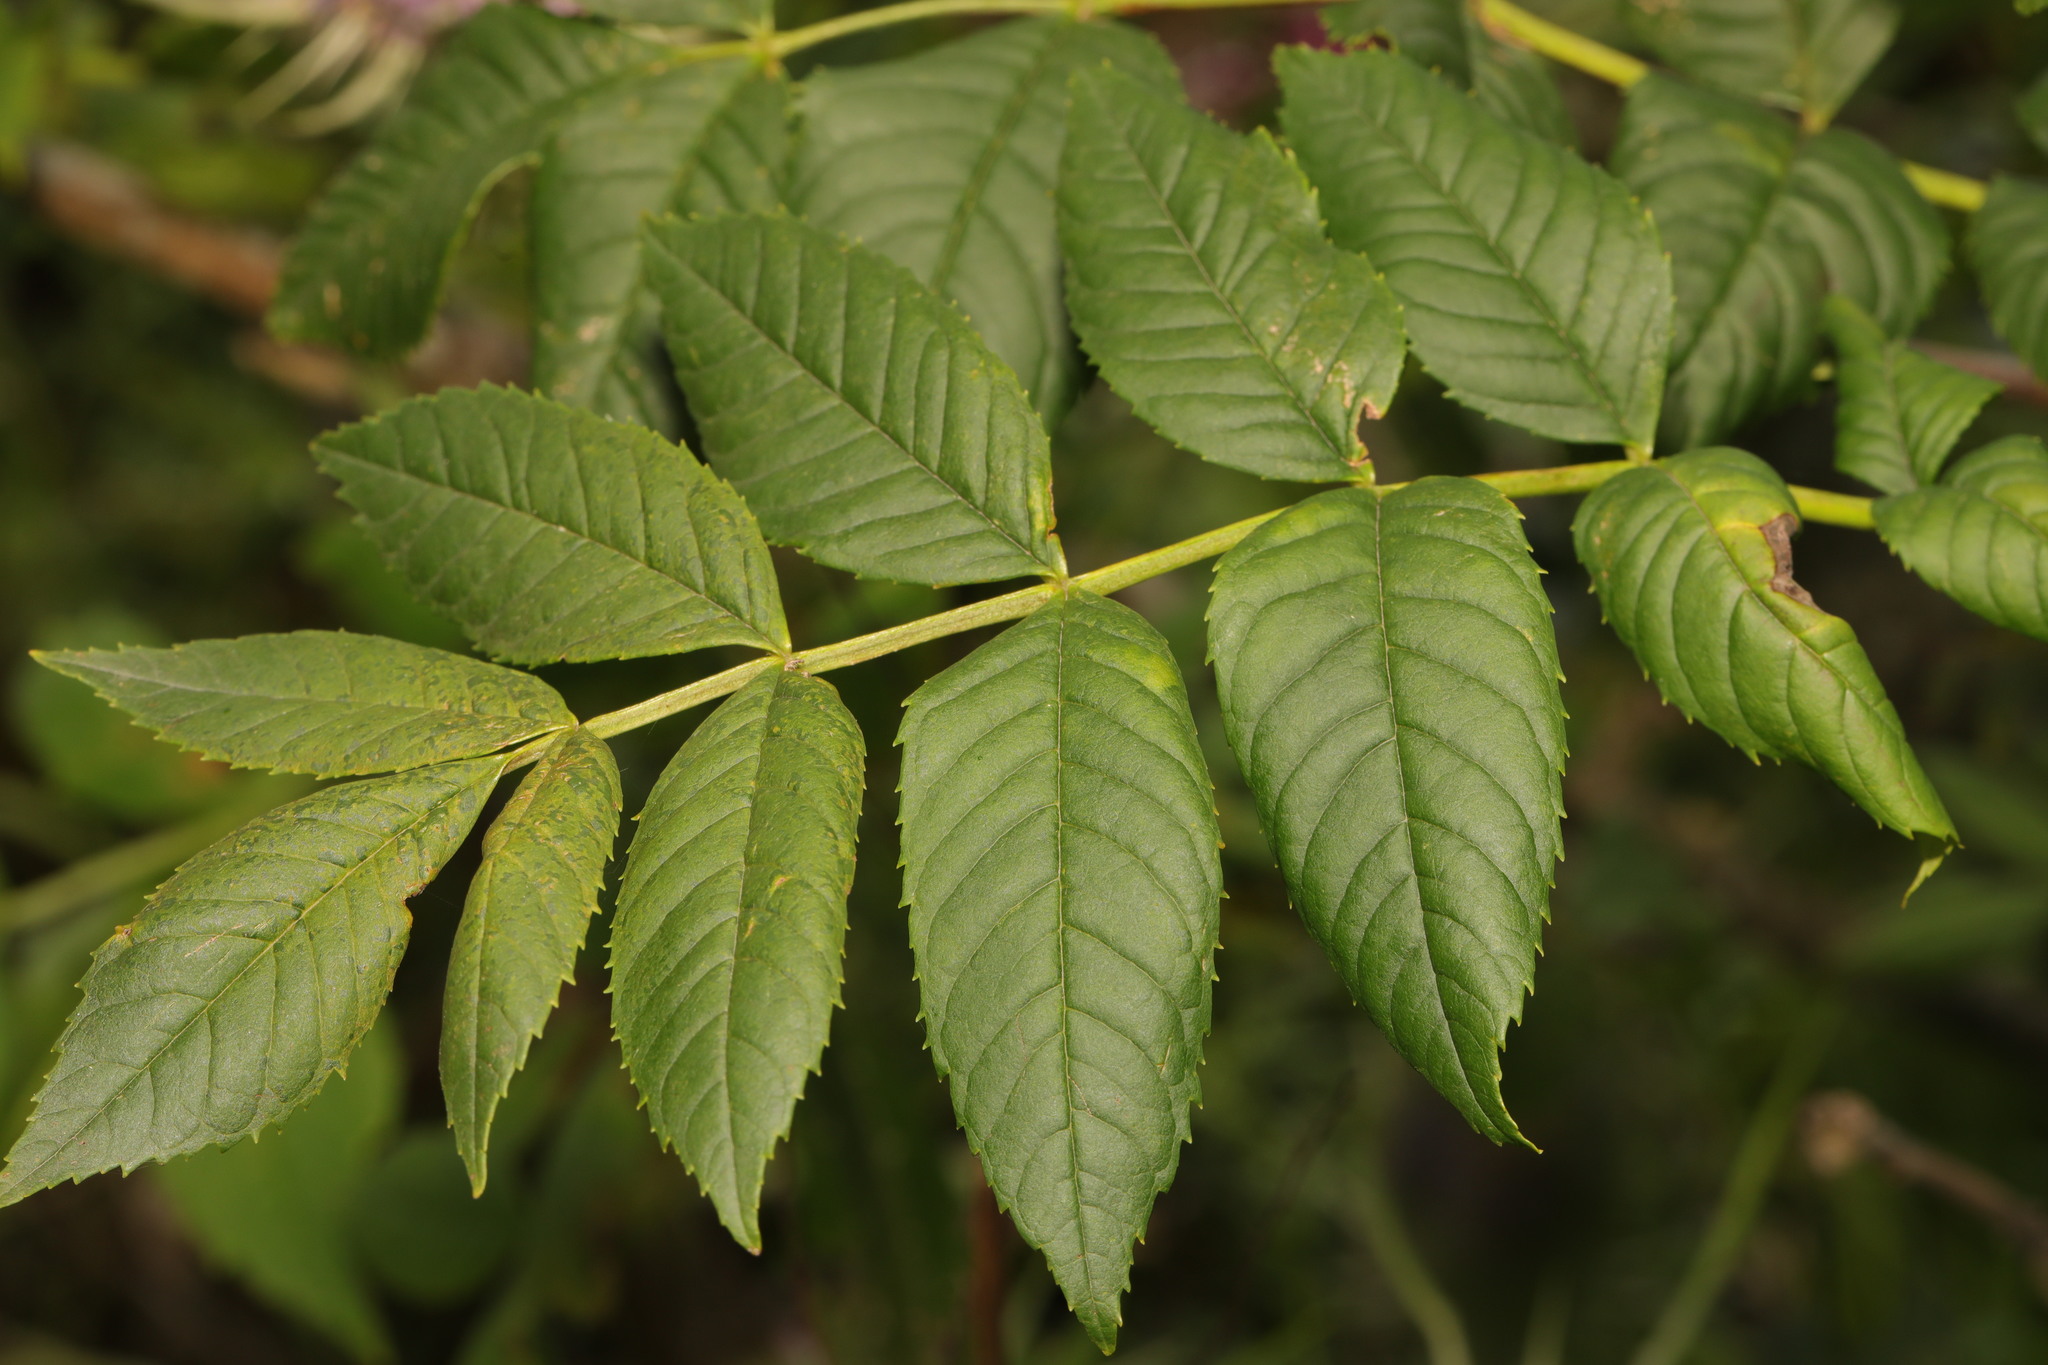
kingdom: Plantae
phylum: Tracheophyta
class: Magnoliopsida
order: Lamiales
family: Oleaceae
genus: Fraxinus
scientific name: Fraxinus excelsior
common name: European ash
